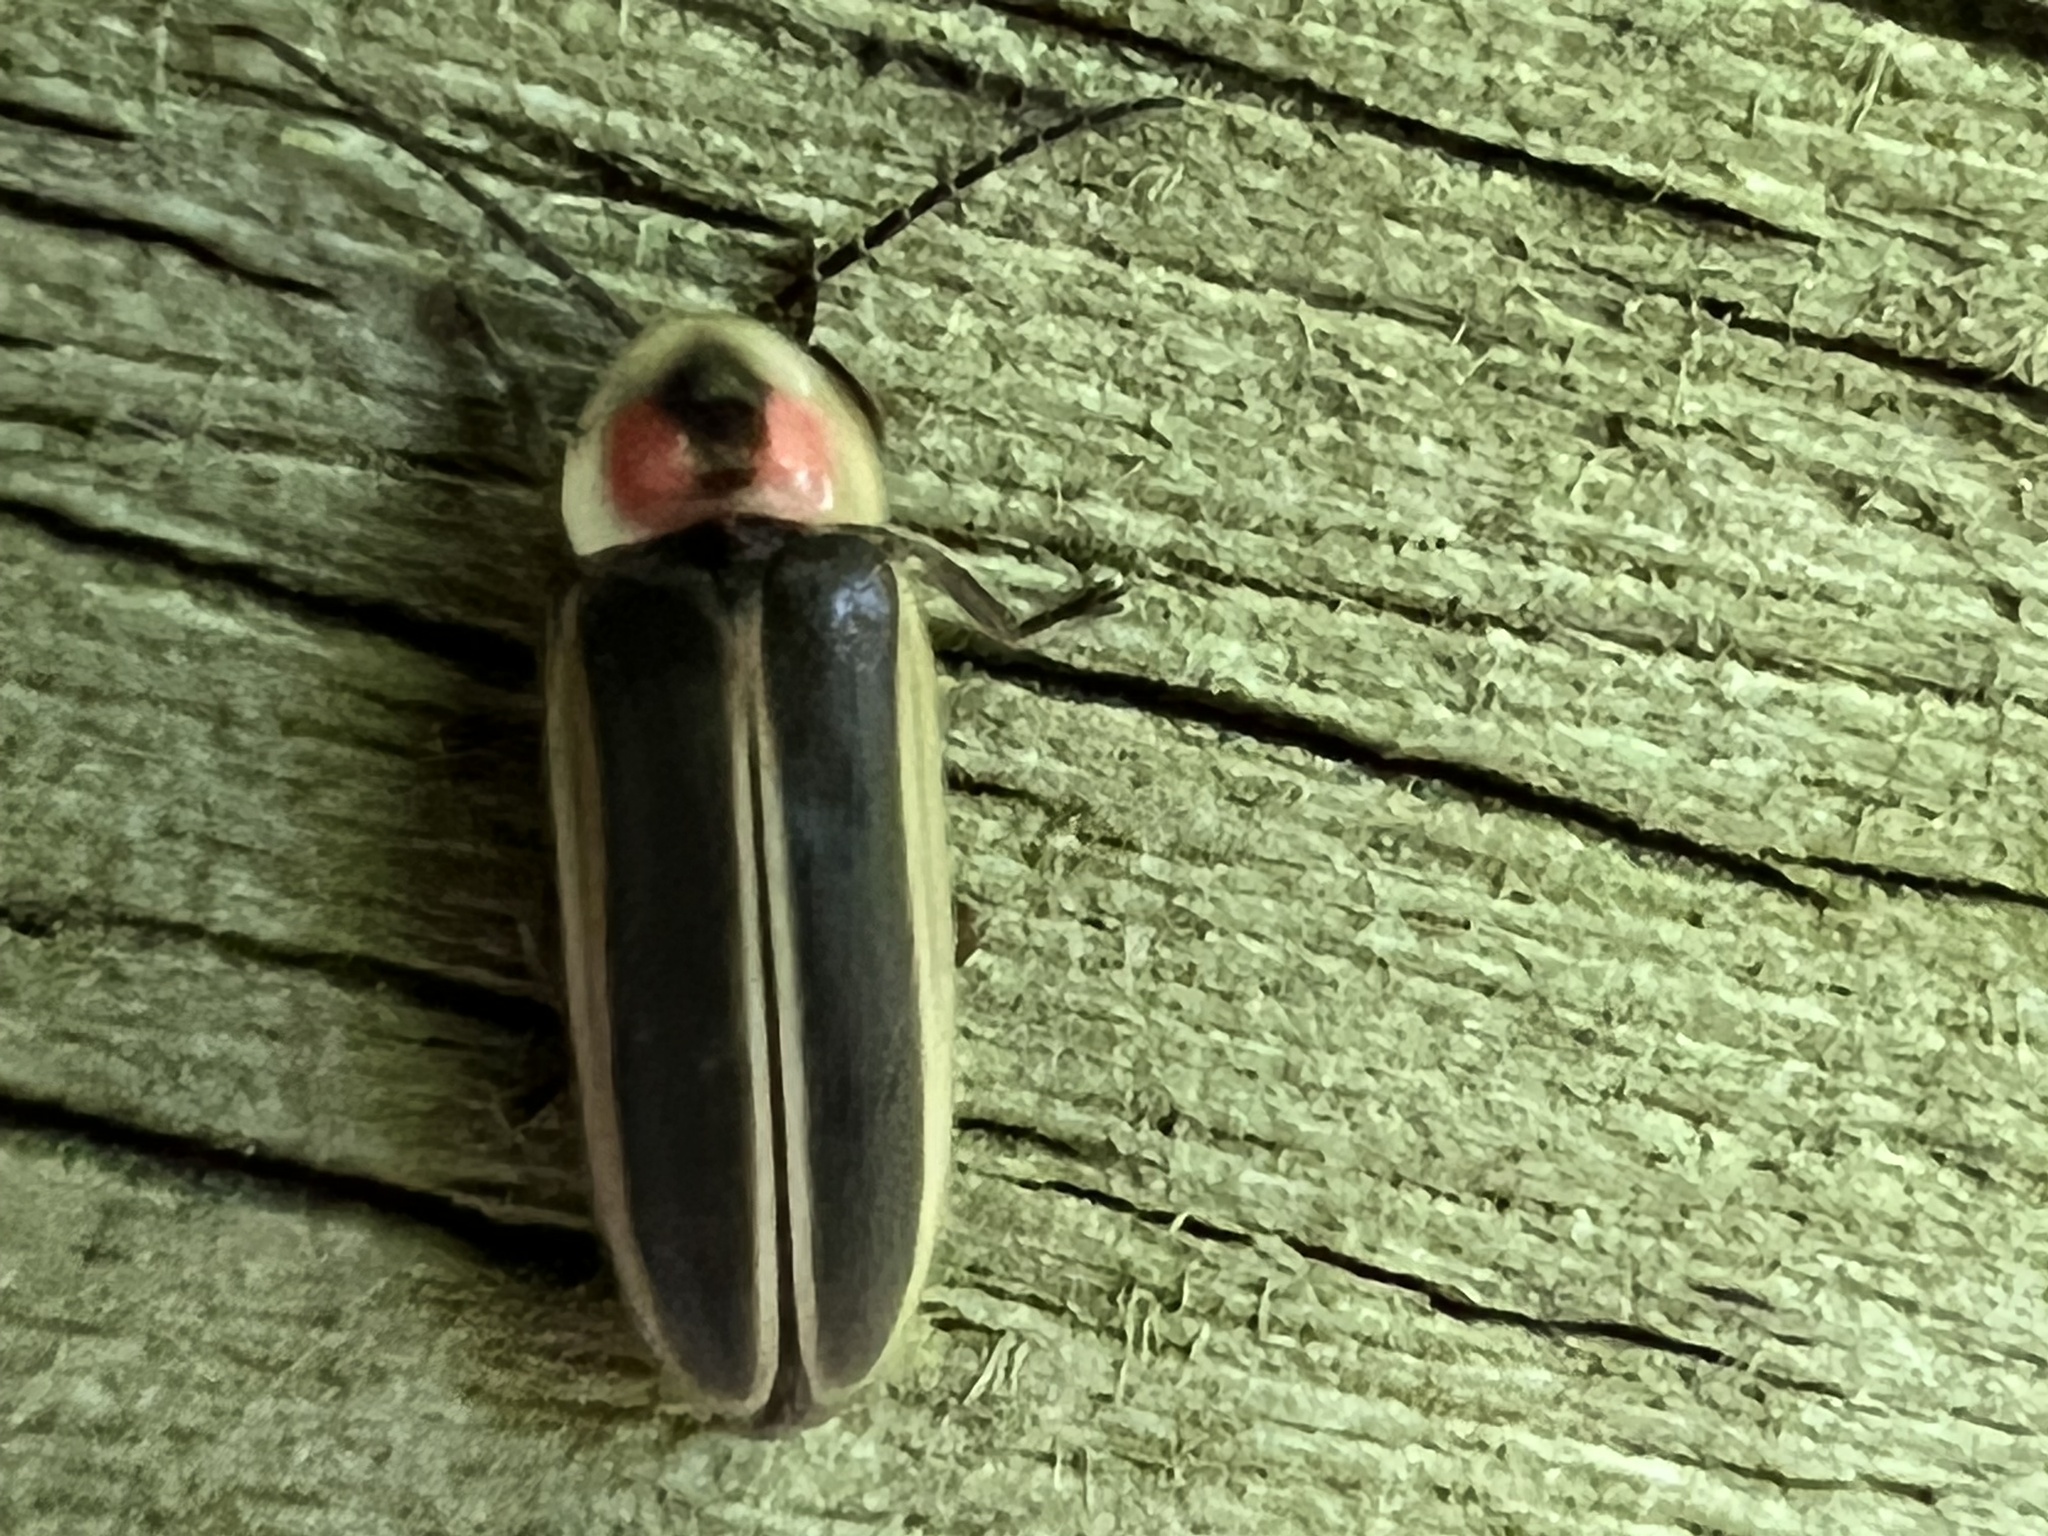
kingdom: Animalia
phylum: Arthropoda
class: Insecta
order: Coleoptera
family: Lampyridae
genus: Photinus
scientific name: Photinus pyralis
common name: Big dipper firefly
